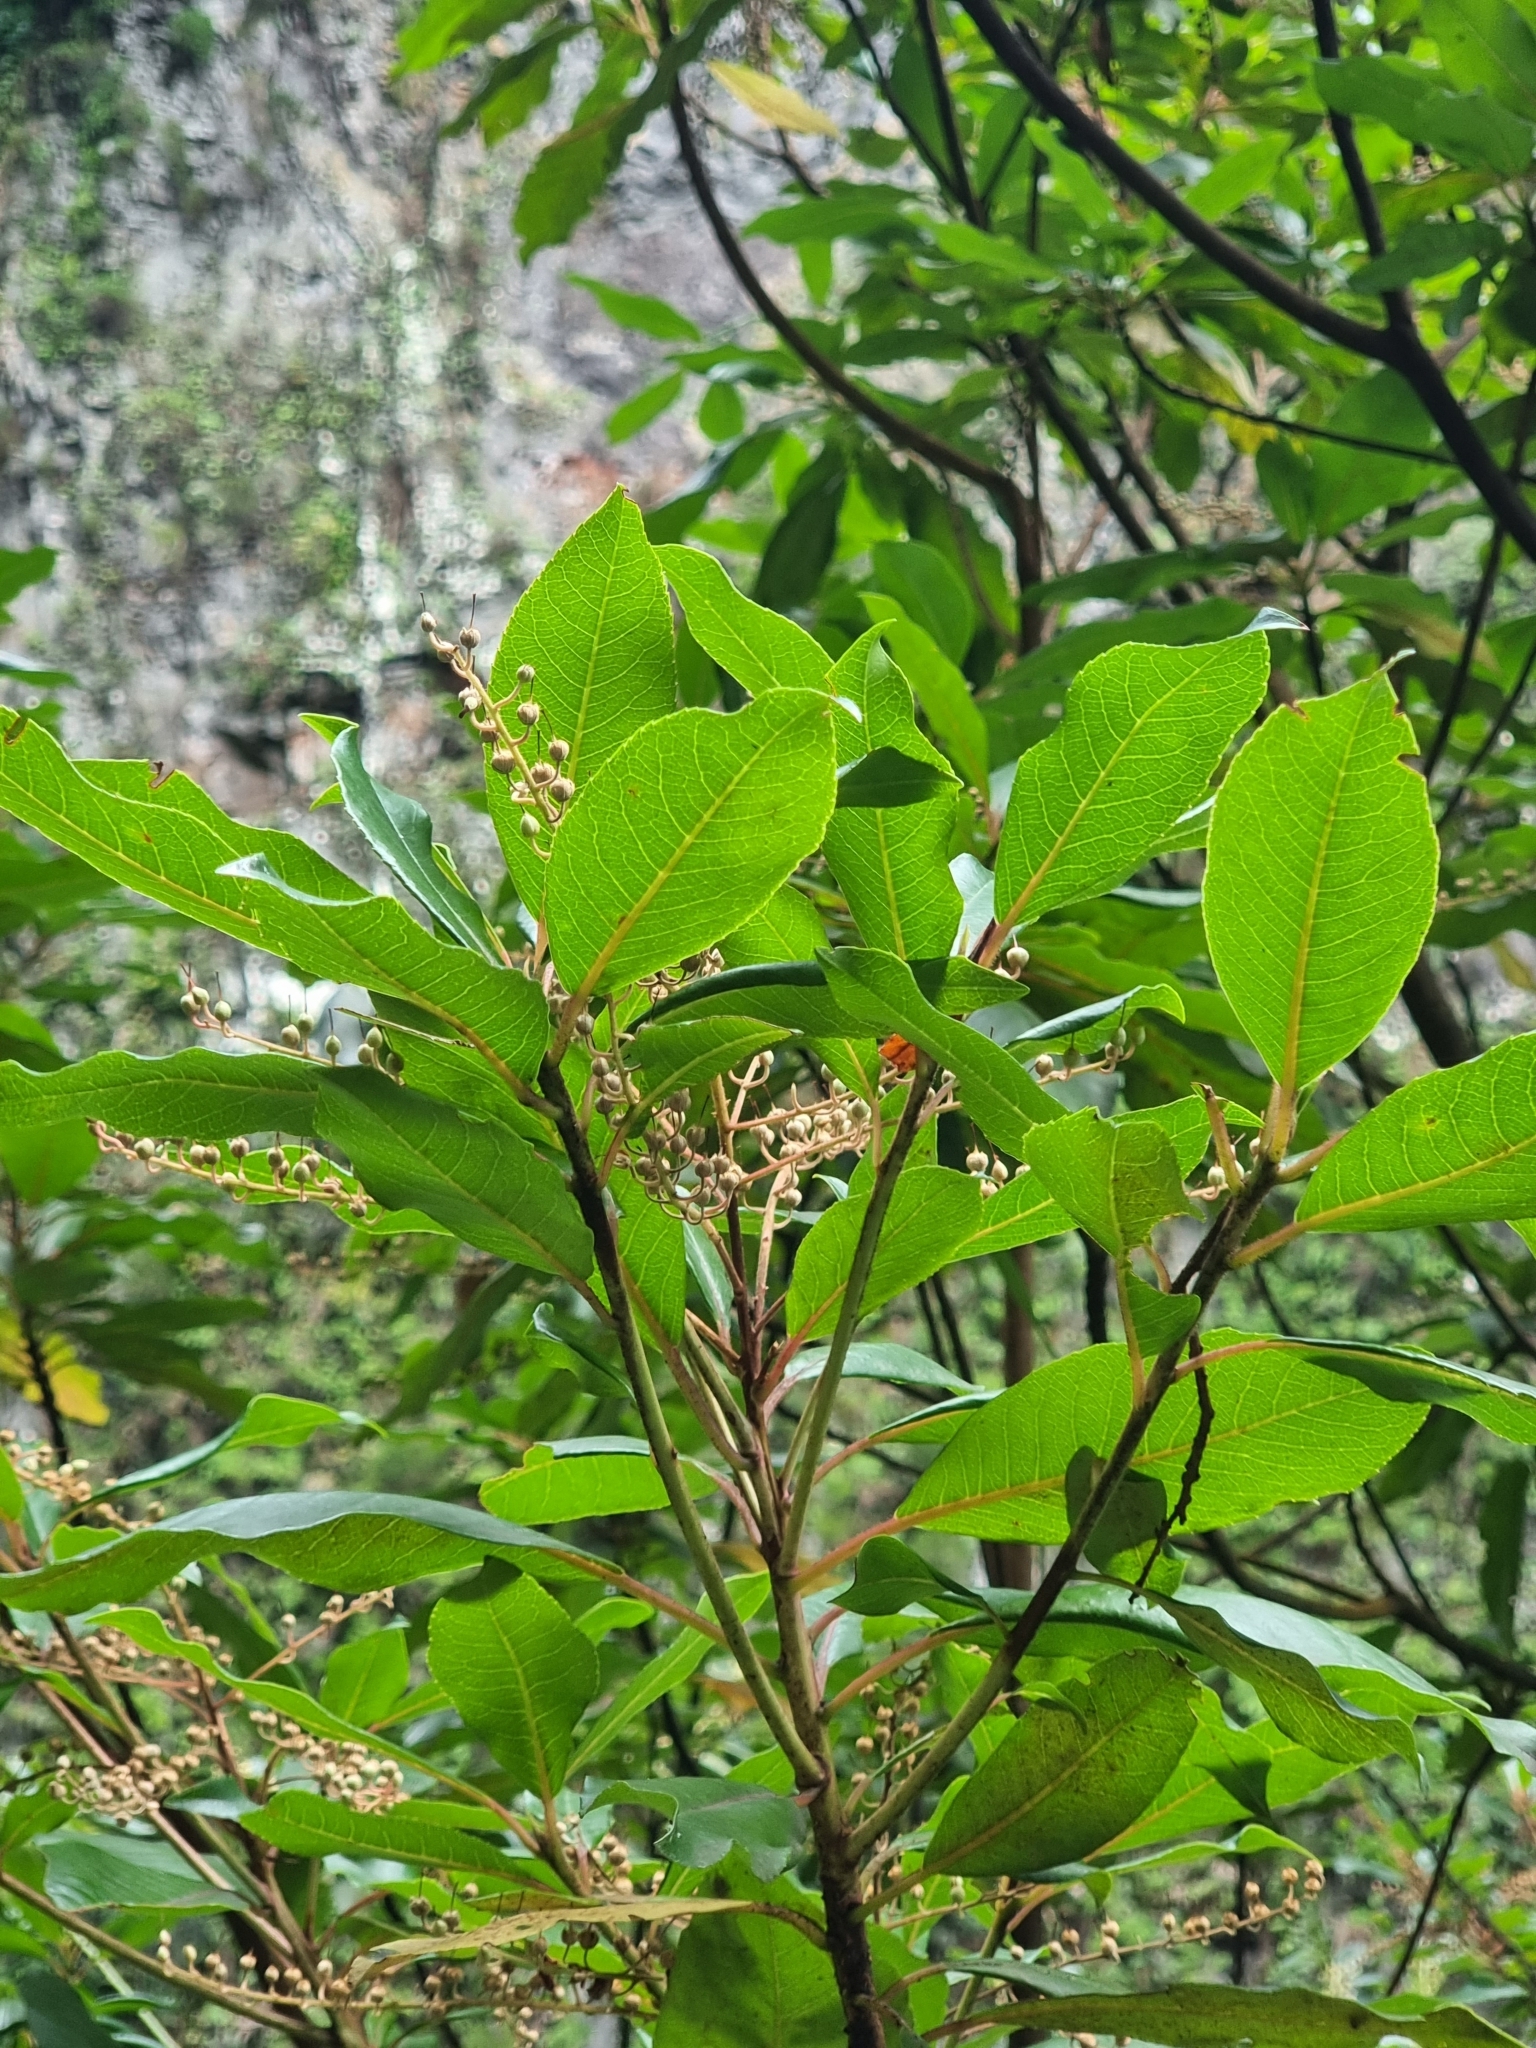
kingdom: Plantae
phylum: Tracheophyta
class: Magnoliopsida
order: Ericales
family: Clethraceae
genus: Clethra
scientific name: Clethra arborea
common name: Lily-of-the-valley-tree
